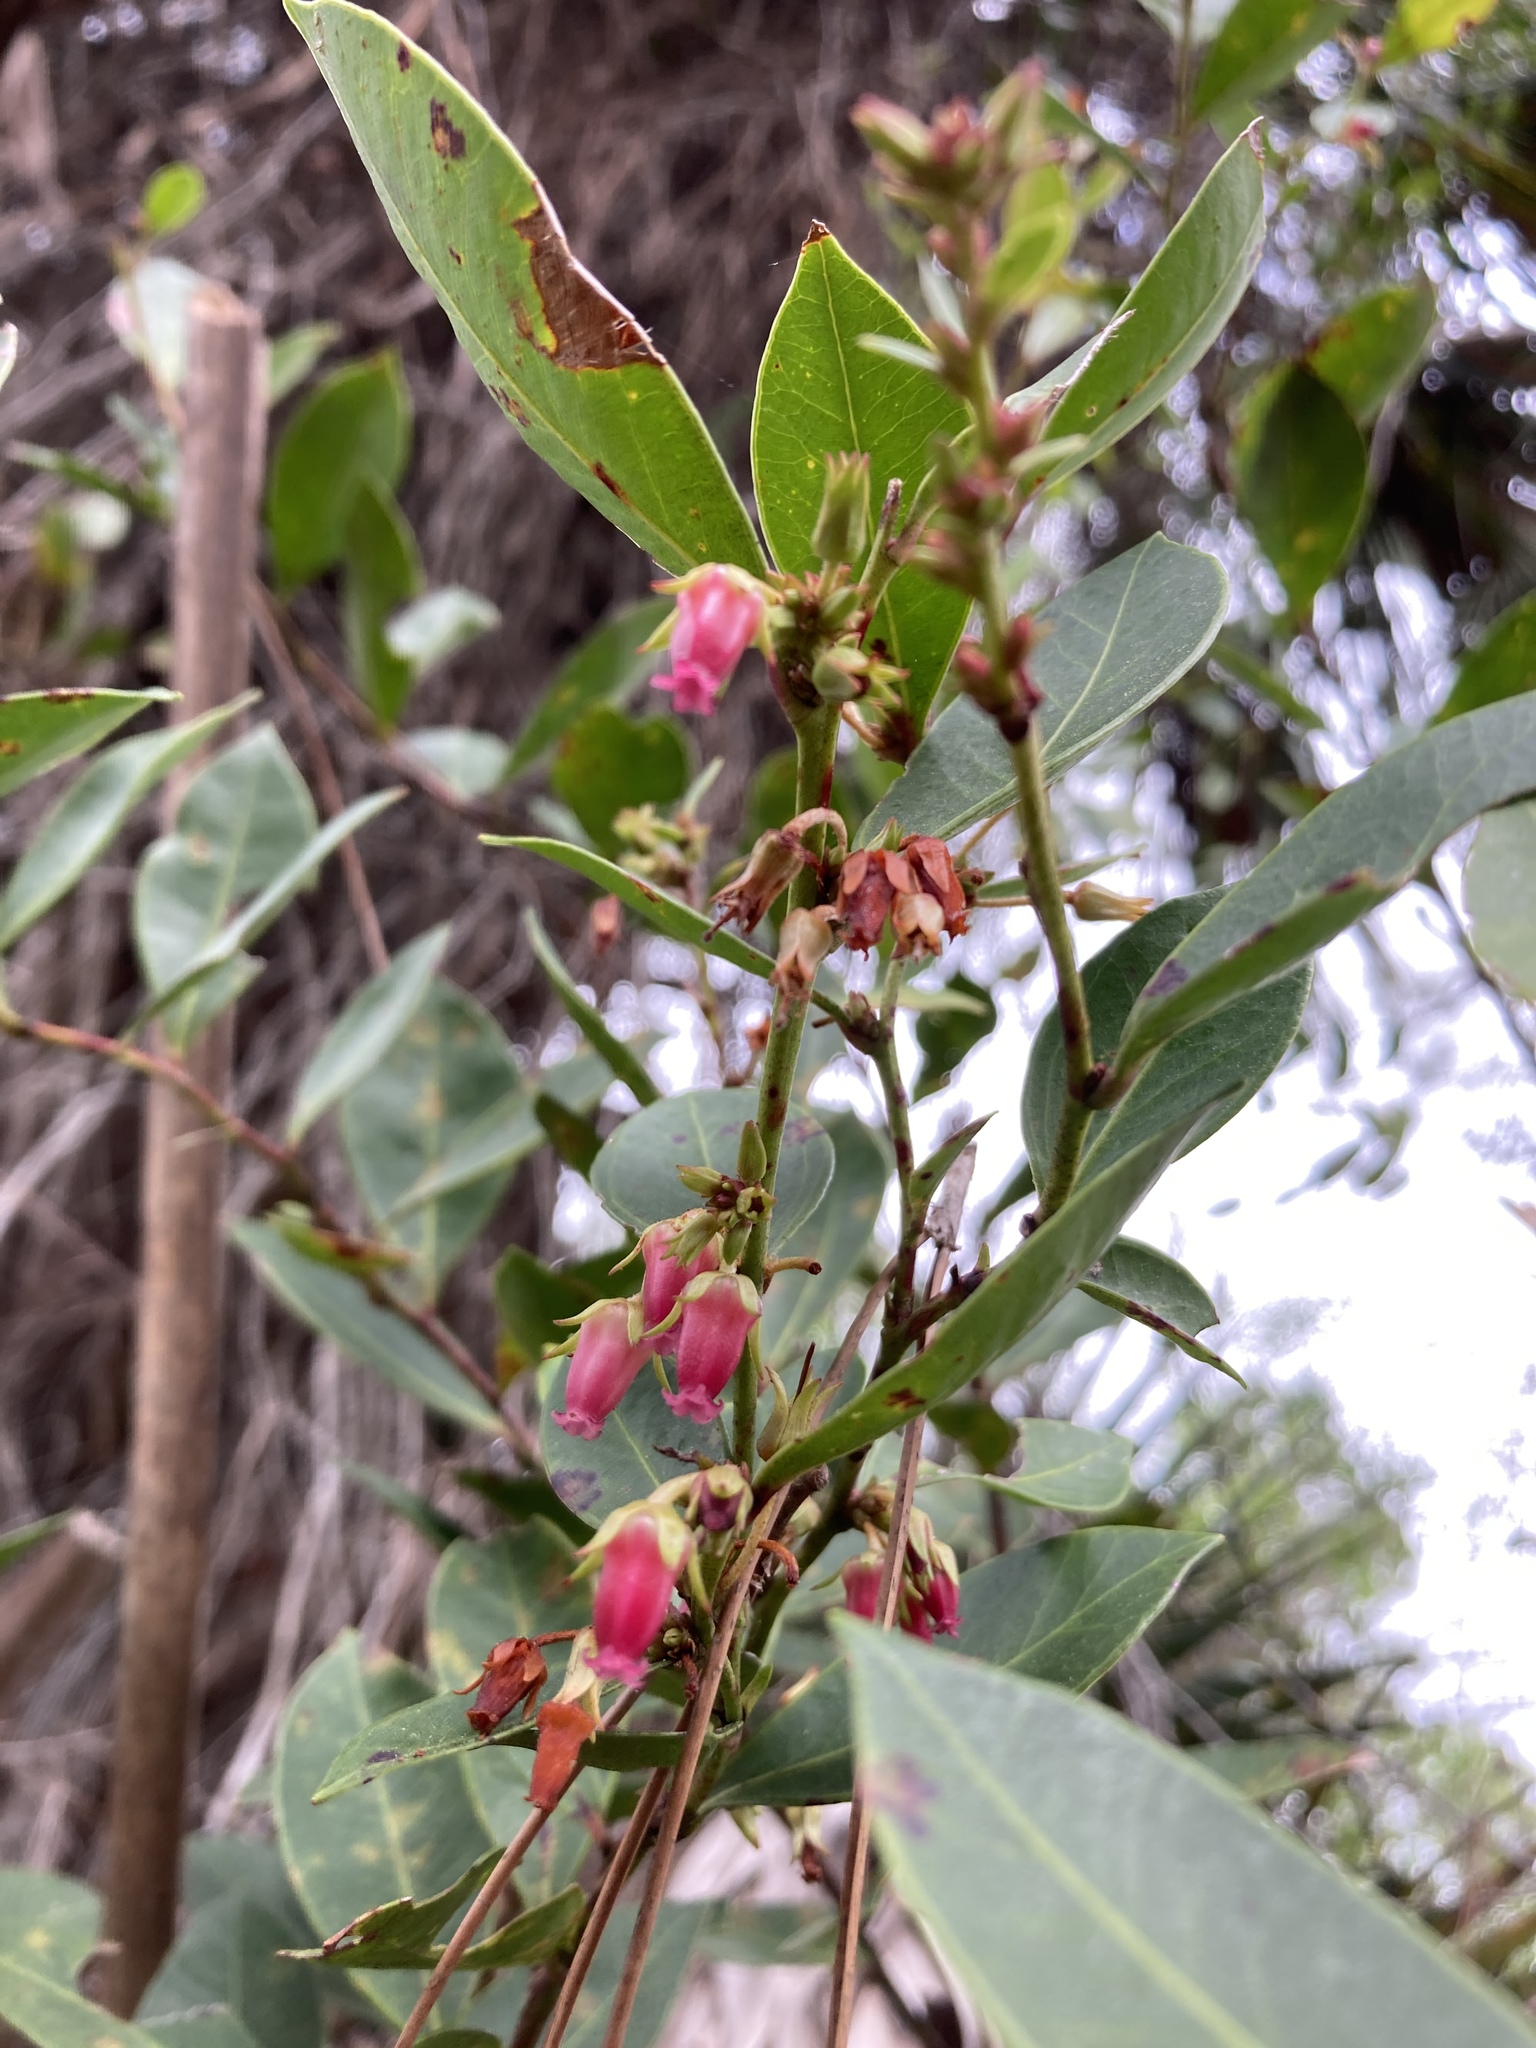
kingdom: Plantae
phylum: Tracheophyta
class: Magnoliopsida
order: Ericales
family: Ericaceae
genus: Lyonia
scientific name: Lyonia lucida
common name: Fetterbush
